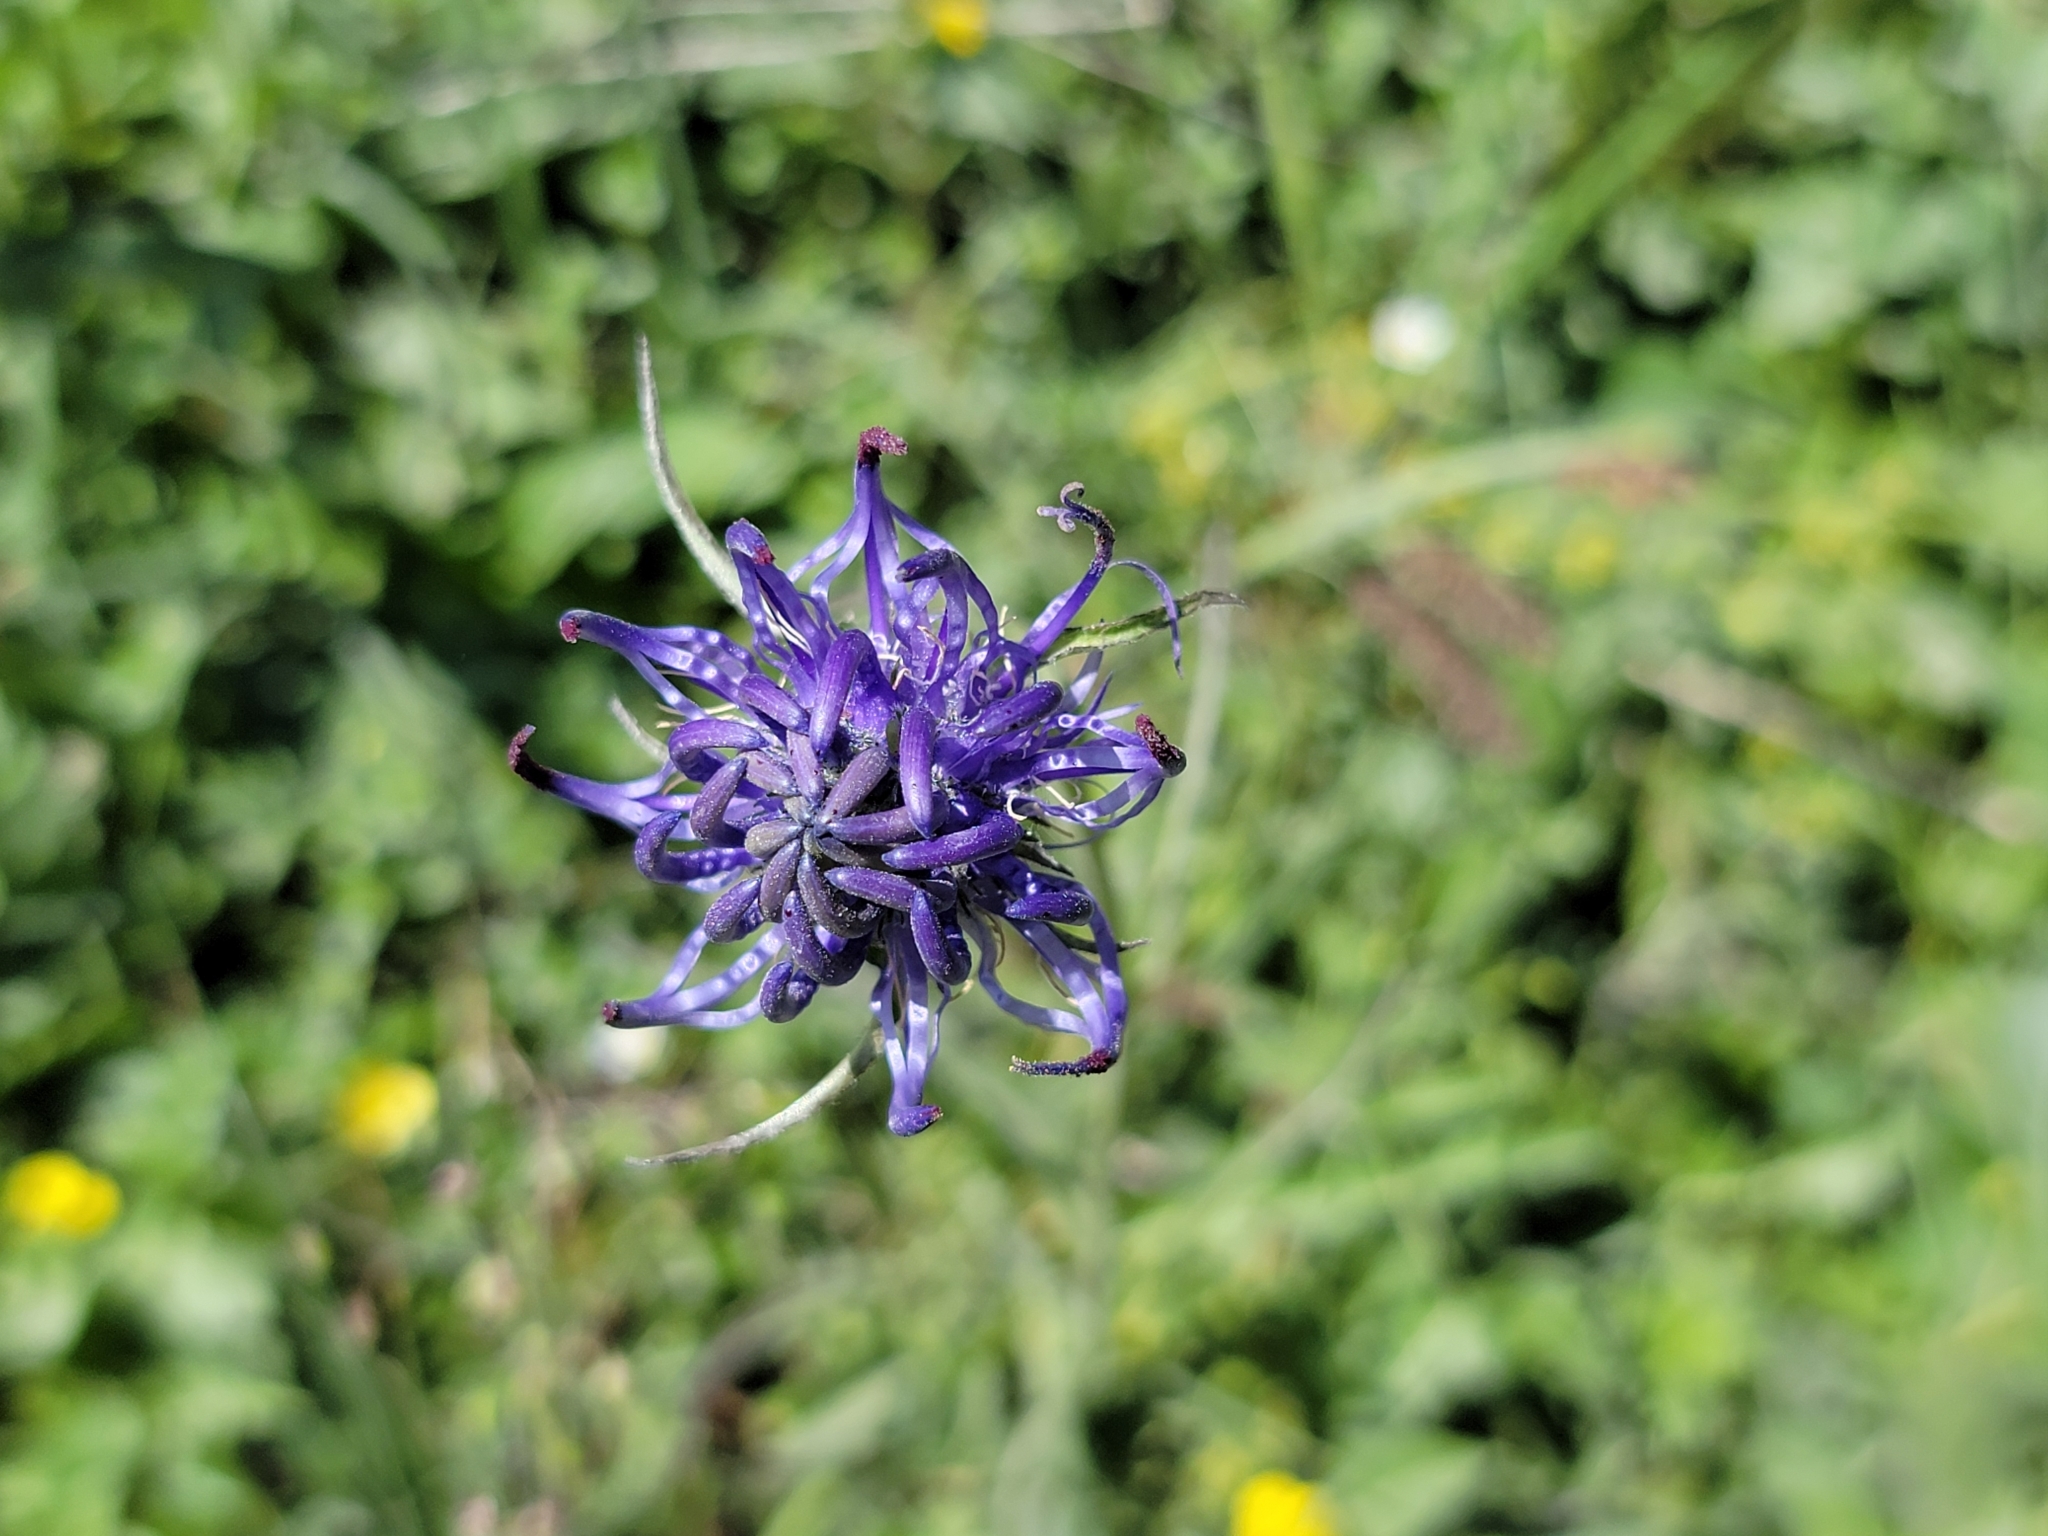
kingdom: Plantae
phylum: Tracheophyta
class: Magnoliopsida
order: Asterales
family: Campanulaceae
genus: Phyteuma
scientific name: Phyteuma orbiculare
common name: Round-headed rampion
